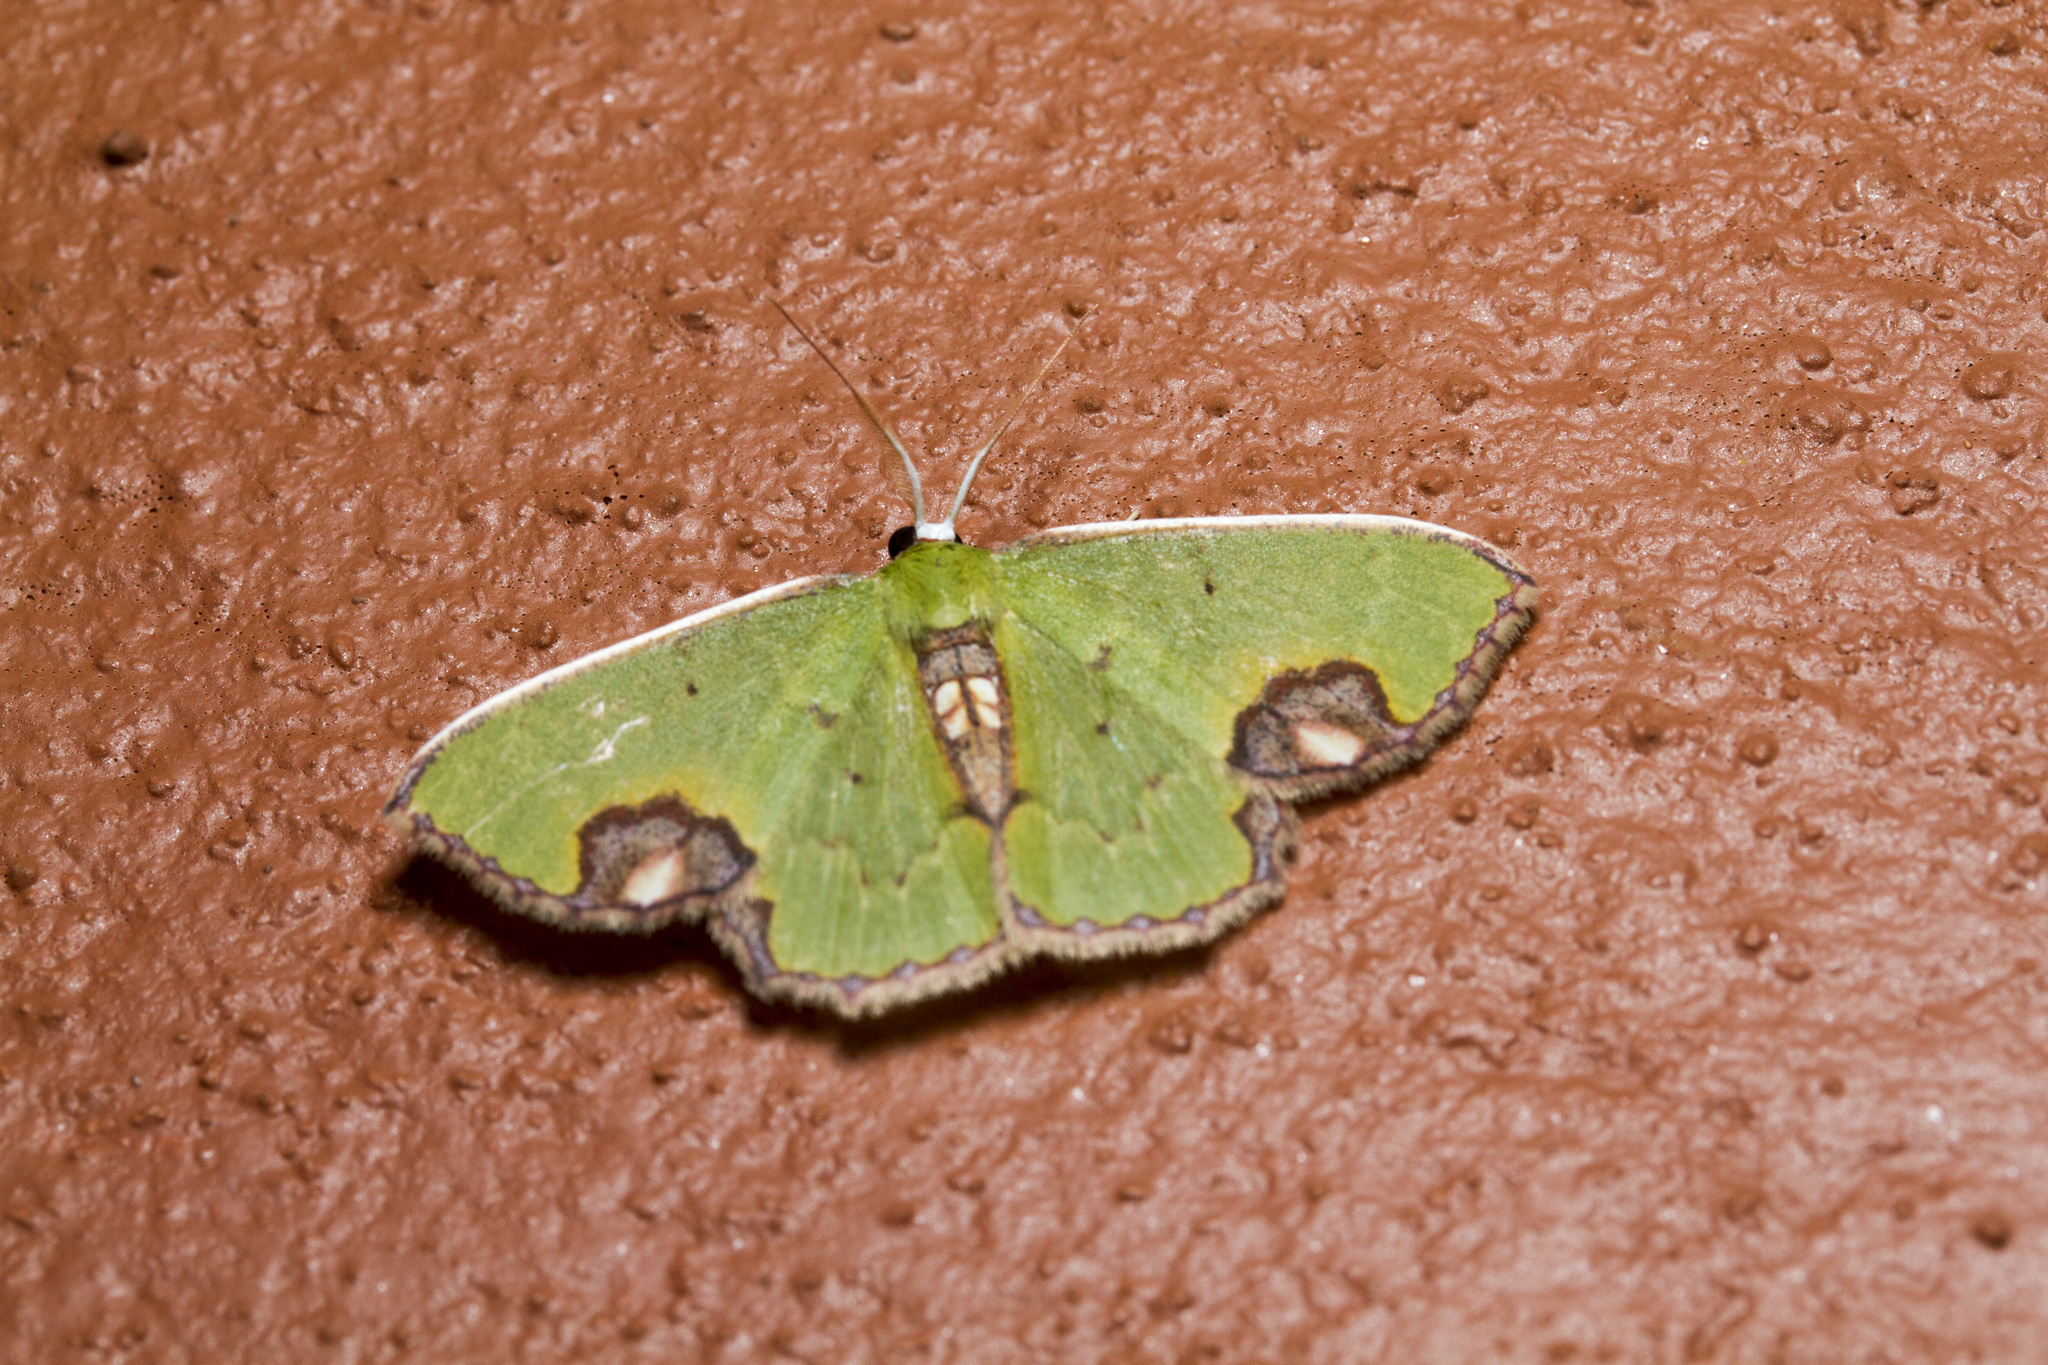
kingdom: Animalia
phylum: Arthropoda
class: Insecta
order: Lepidoptera
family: Geometridae
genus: Comibaena
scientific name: Comibaena attenuata
